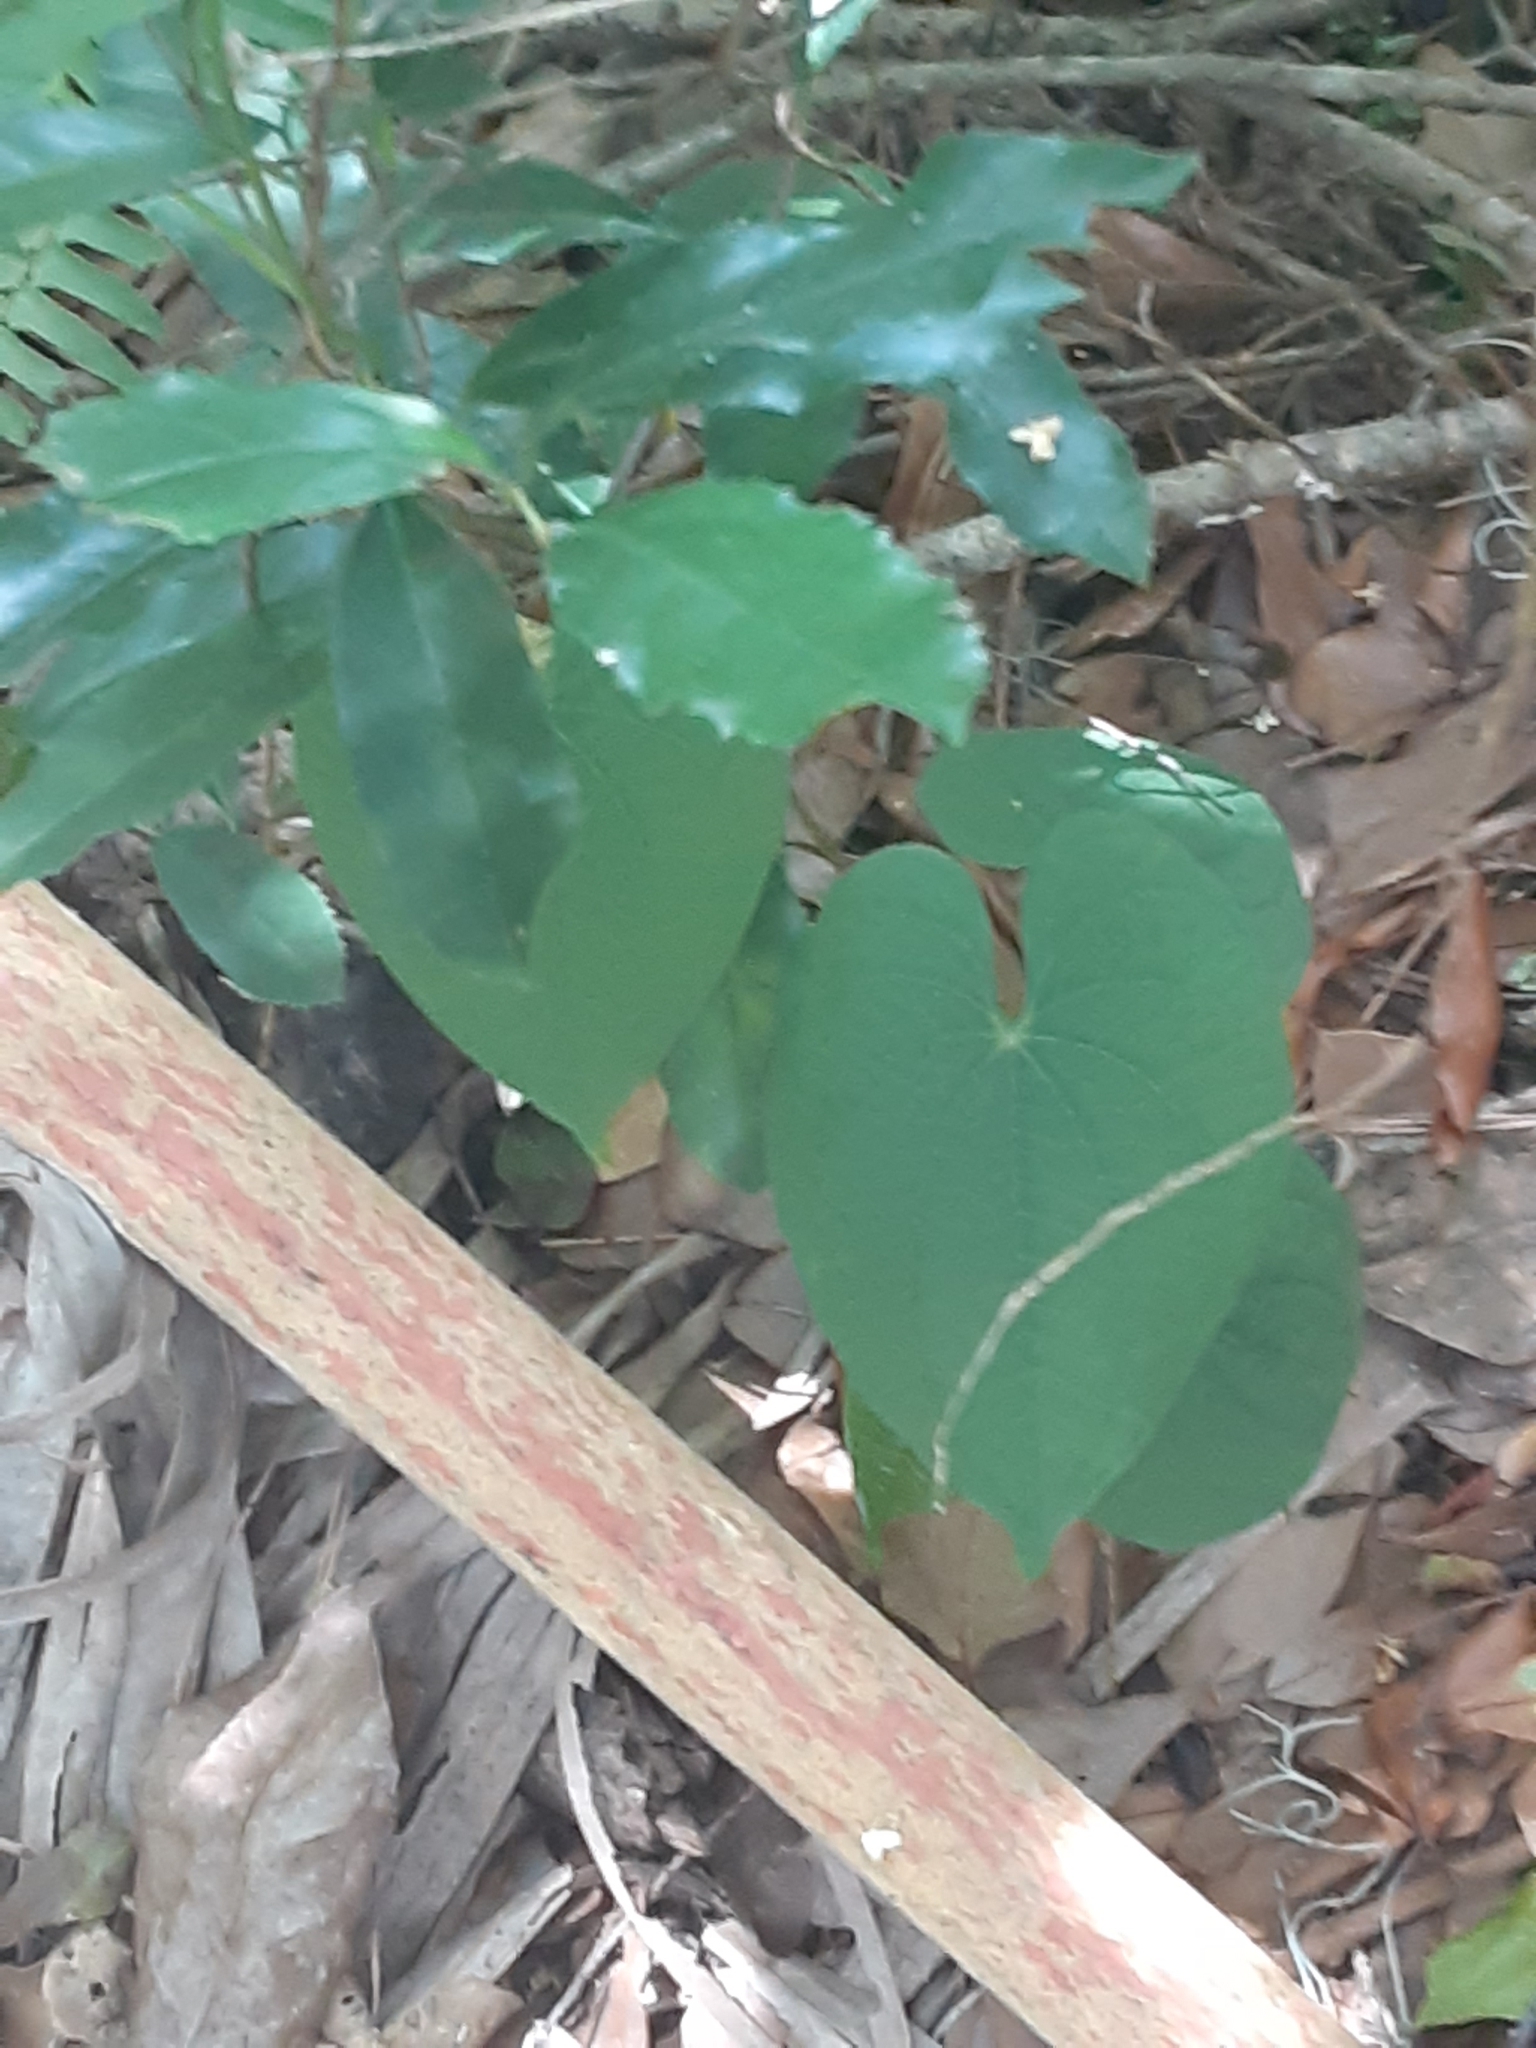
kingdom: Plantae
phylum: Tracheophyta
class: Liliopsida
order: Dioscoreales
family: Dioscoreaceae
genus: Dioscorea
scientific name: Dioscorea bulbifera
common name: Air yam
